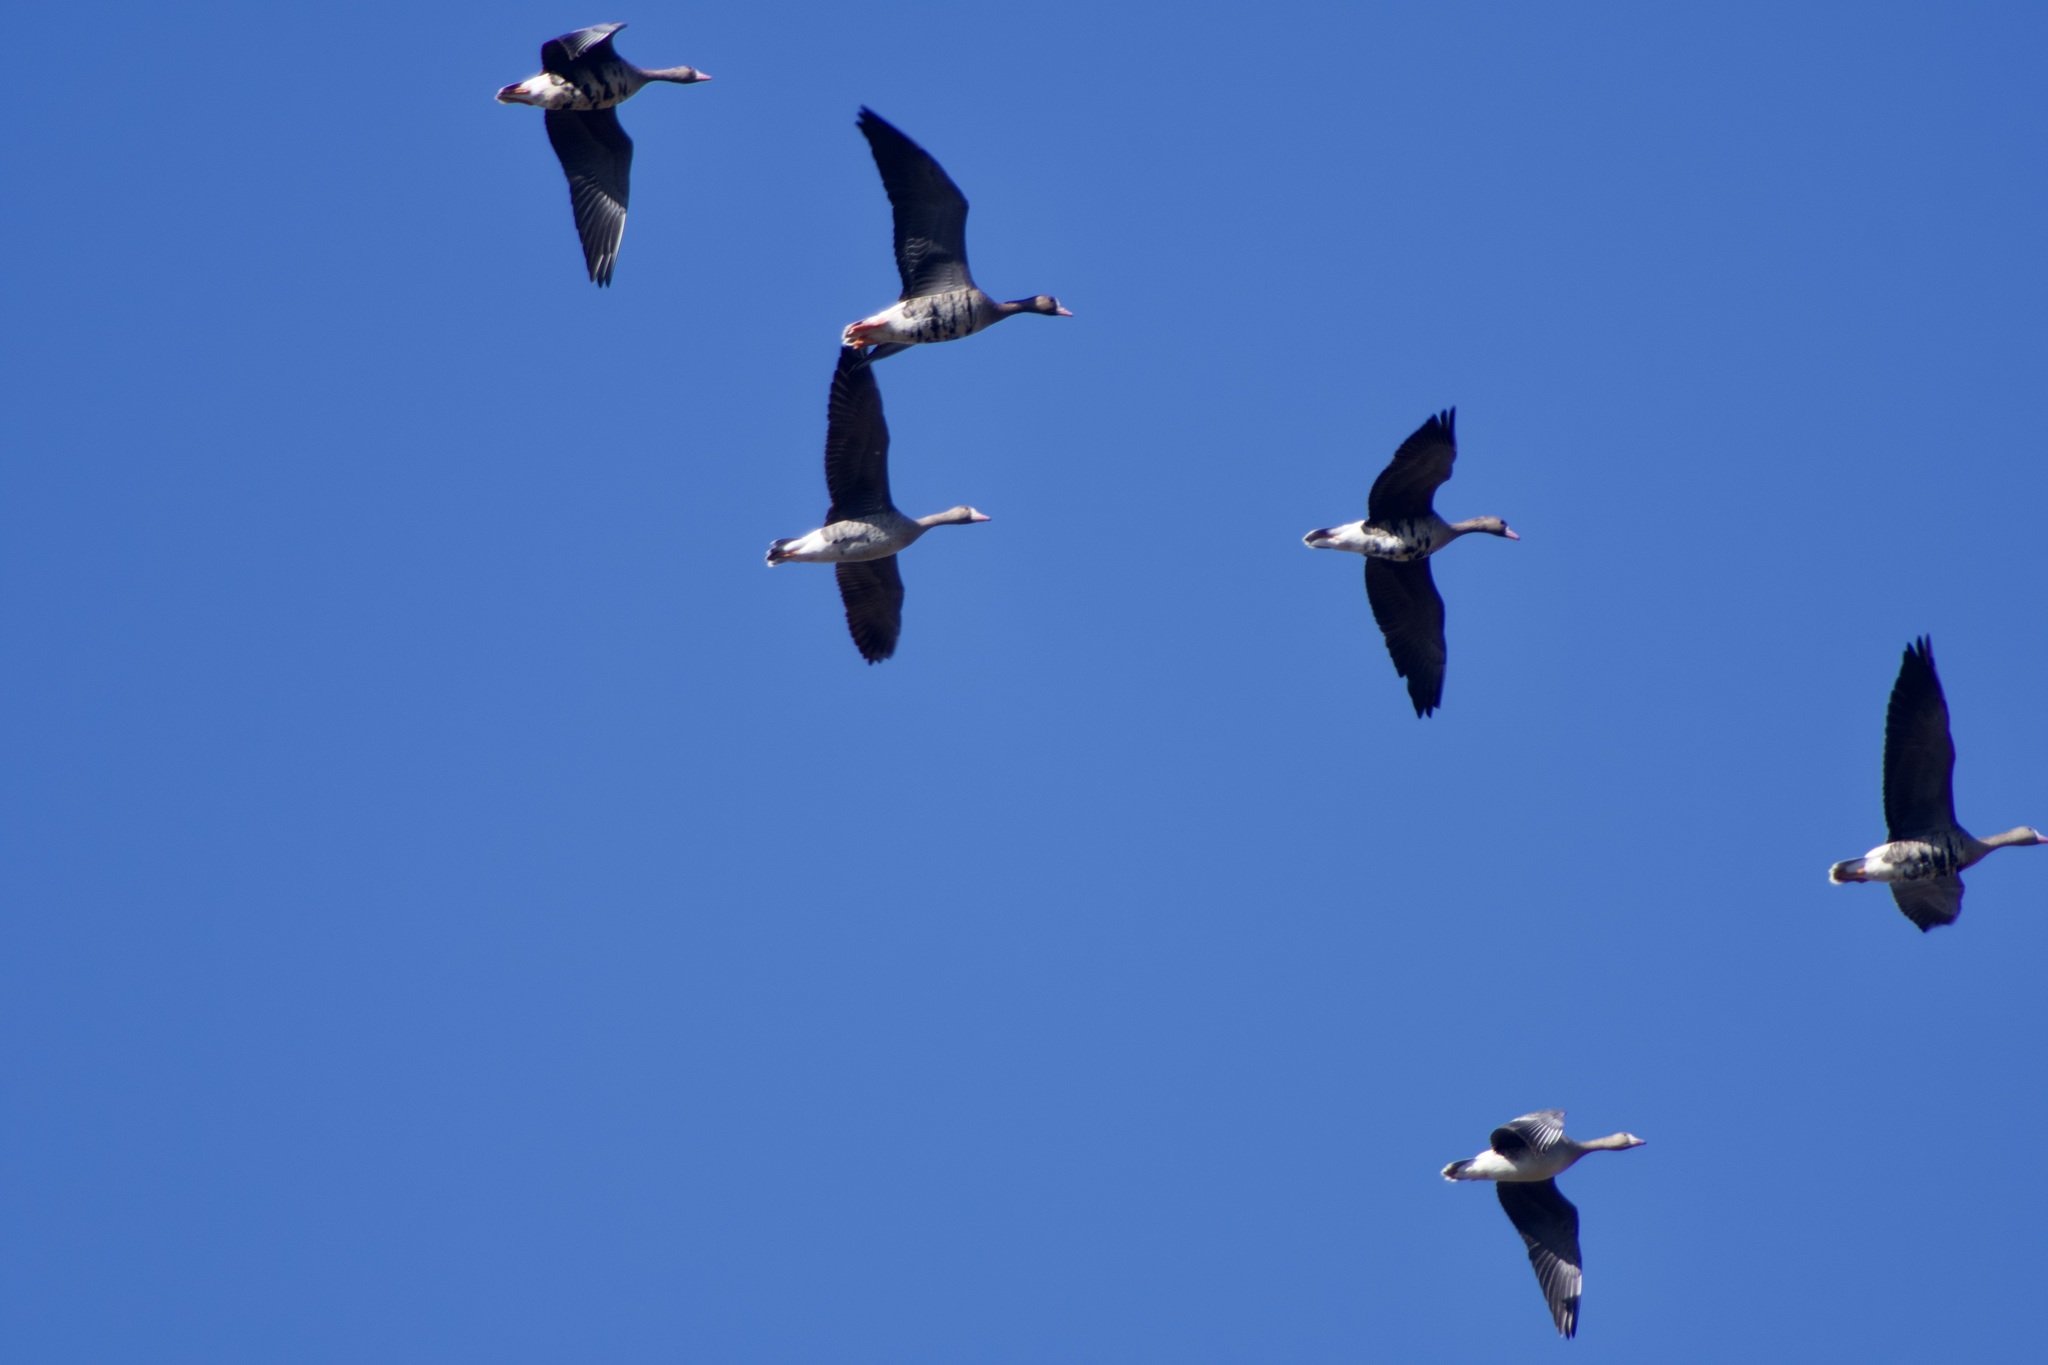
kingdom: Animalia
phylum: Chordata
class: Aves
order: Anseriformes
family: Anatidae
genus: Anser
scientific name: Anser albifrons
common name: Greater white-fronted goose
